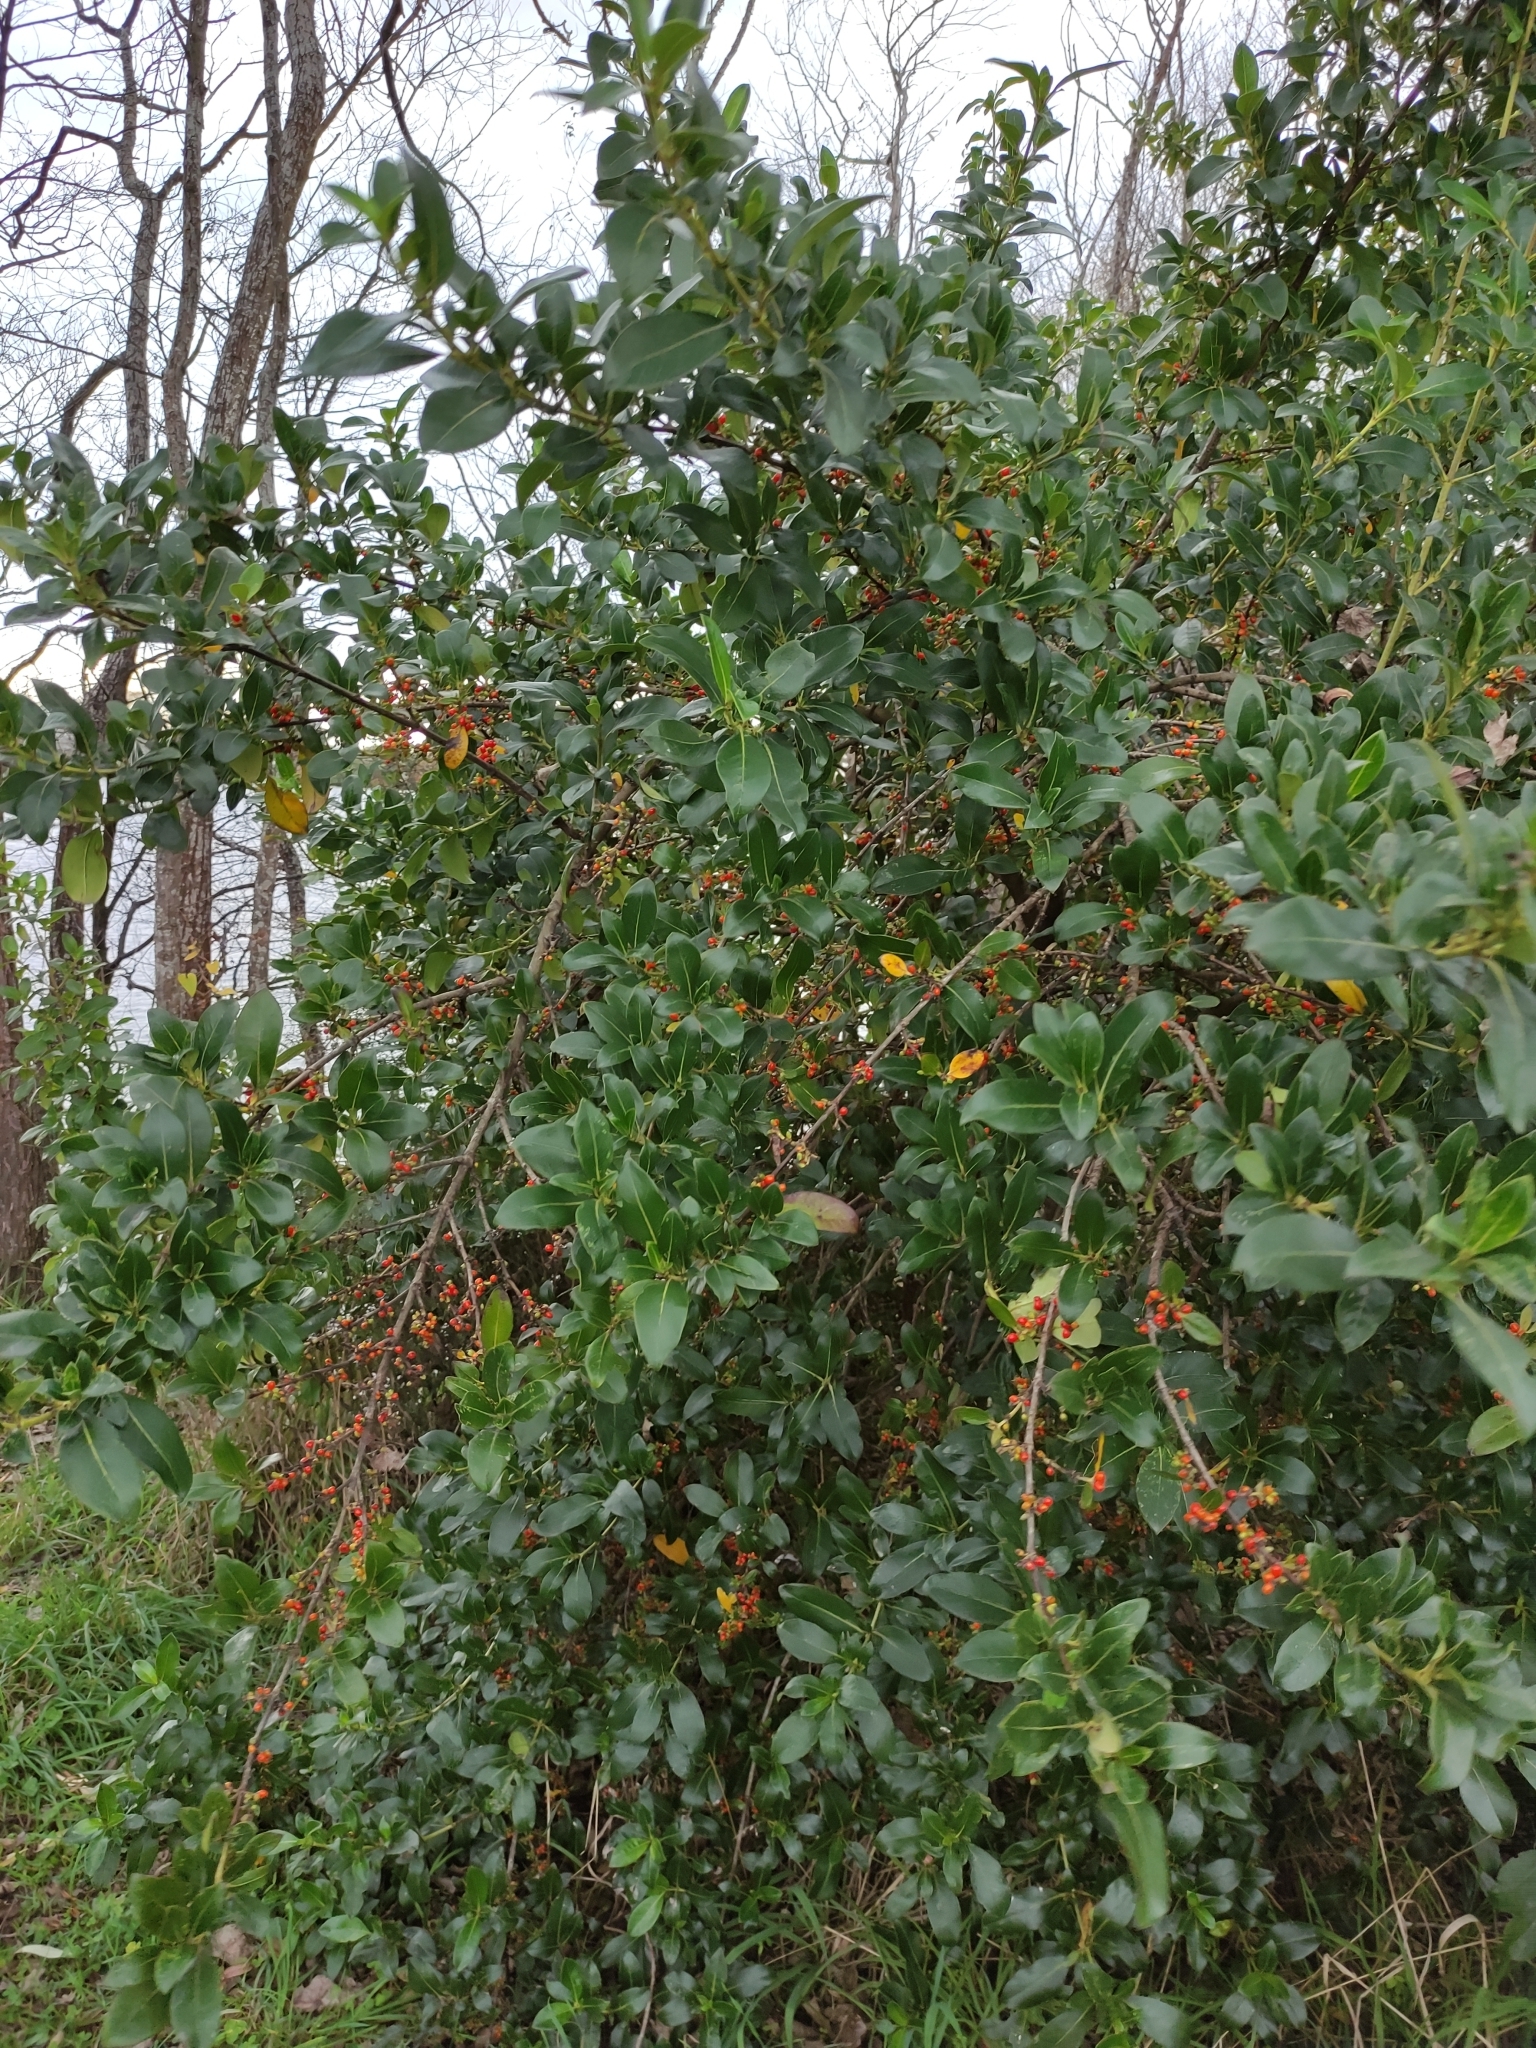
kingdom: Plantae
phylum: Tracheophyta
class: Magnoliopsida
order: Gentianales
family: Rubiaceae
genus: Coprosma
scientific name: Coprosma robusta
